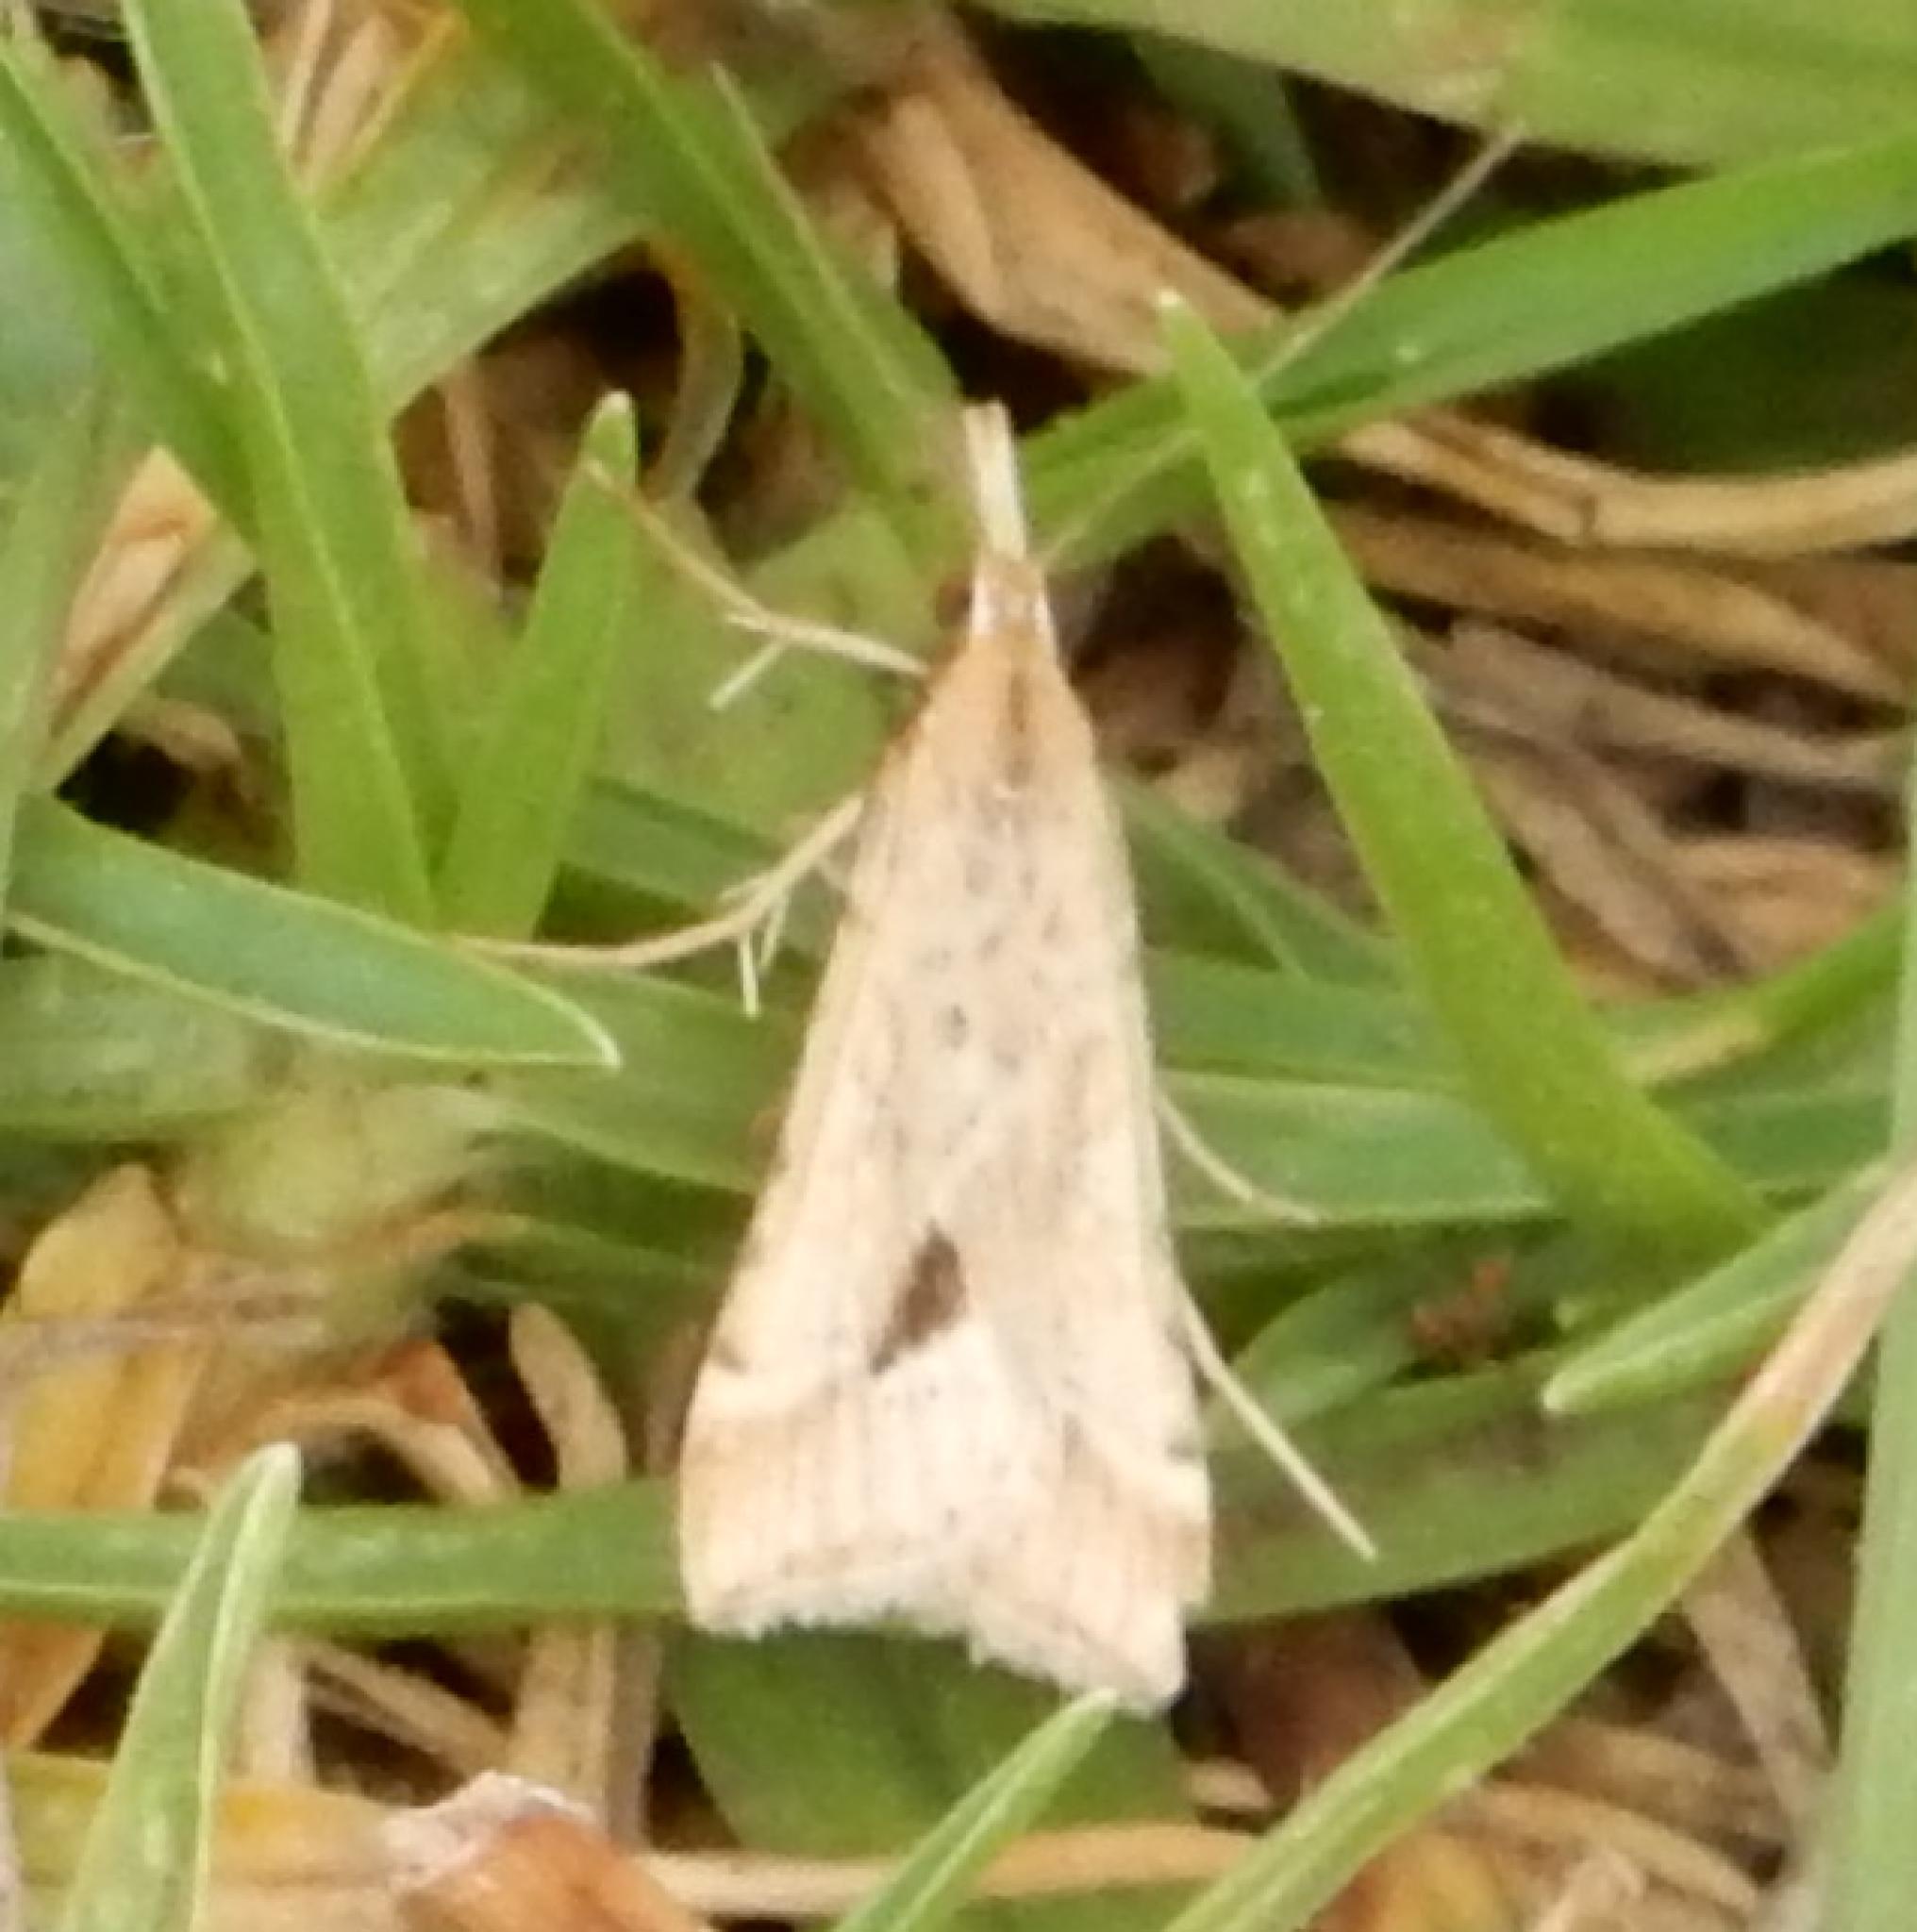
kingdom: Animalia
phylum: Arthropoda
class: Insecta
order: Lepidoptera
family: Crambidae
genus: Diasemia
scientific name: Diasemia monostigma
